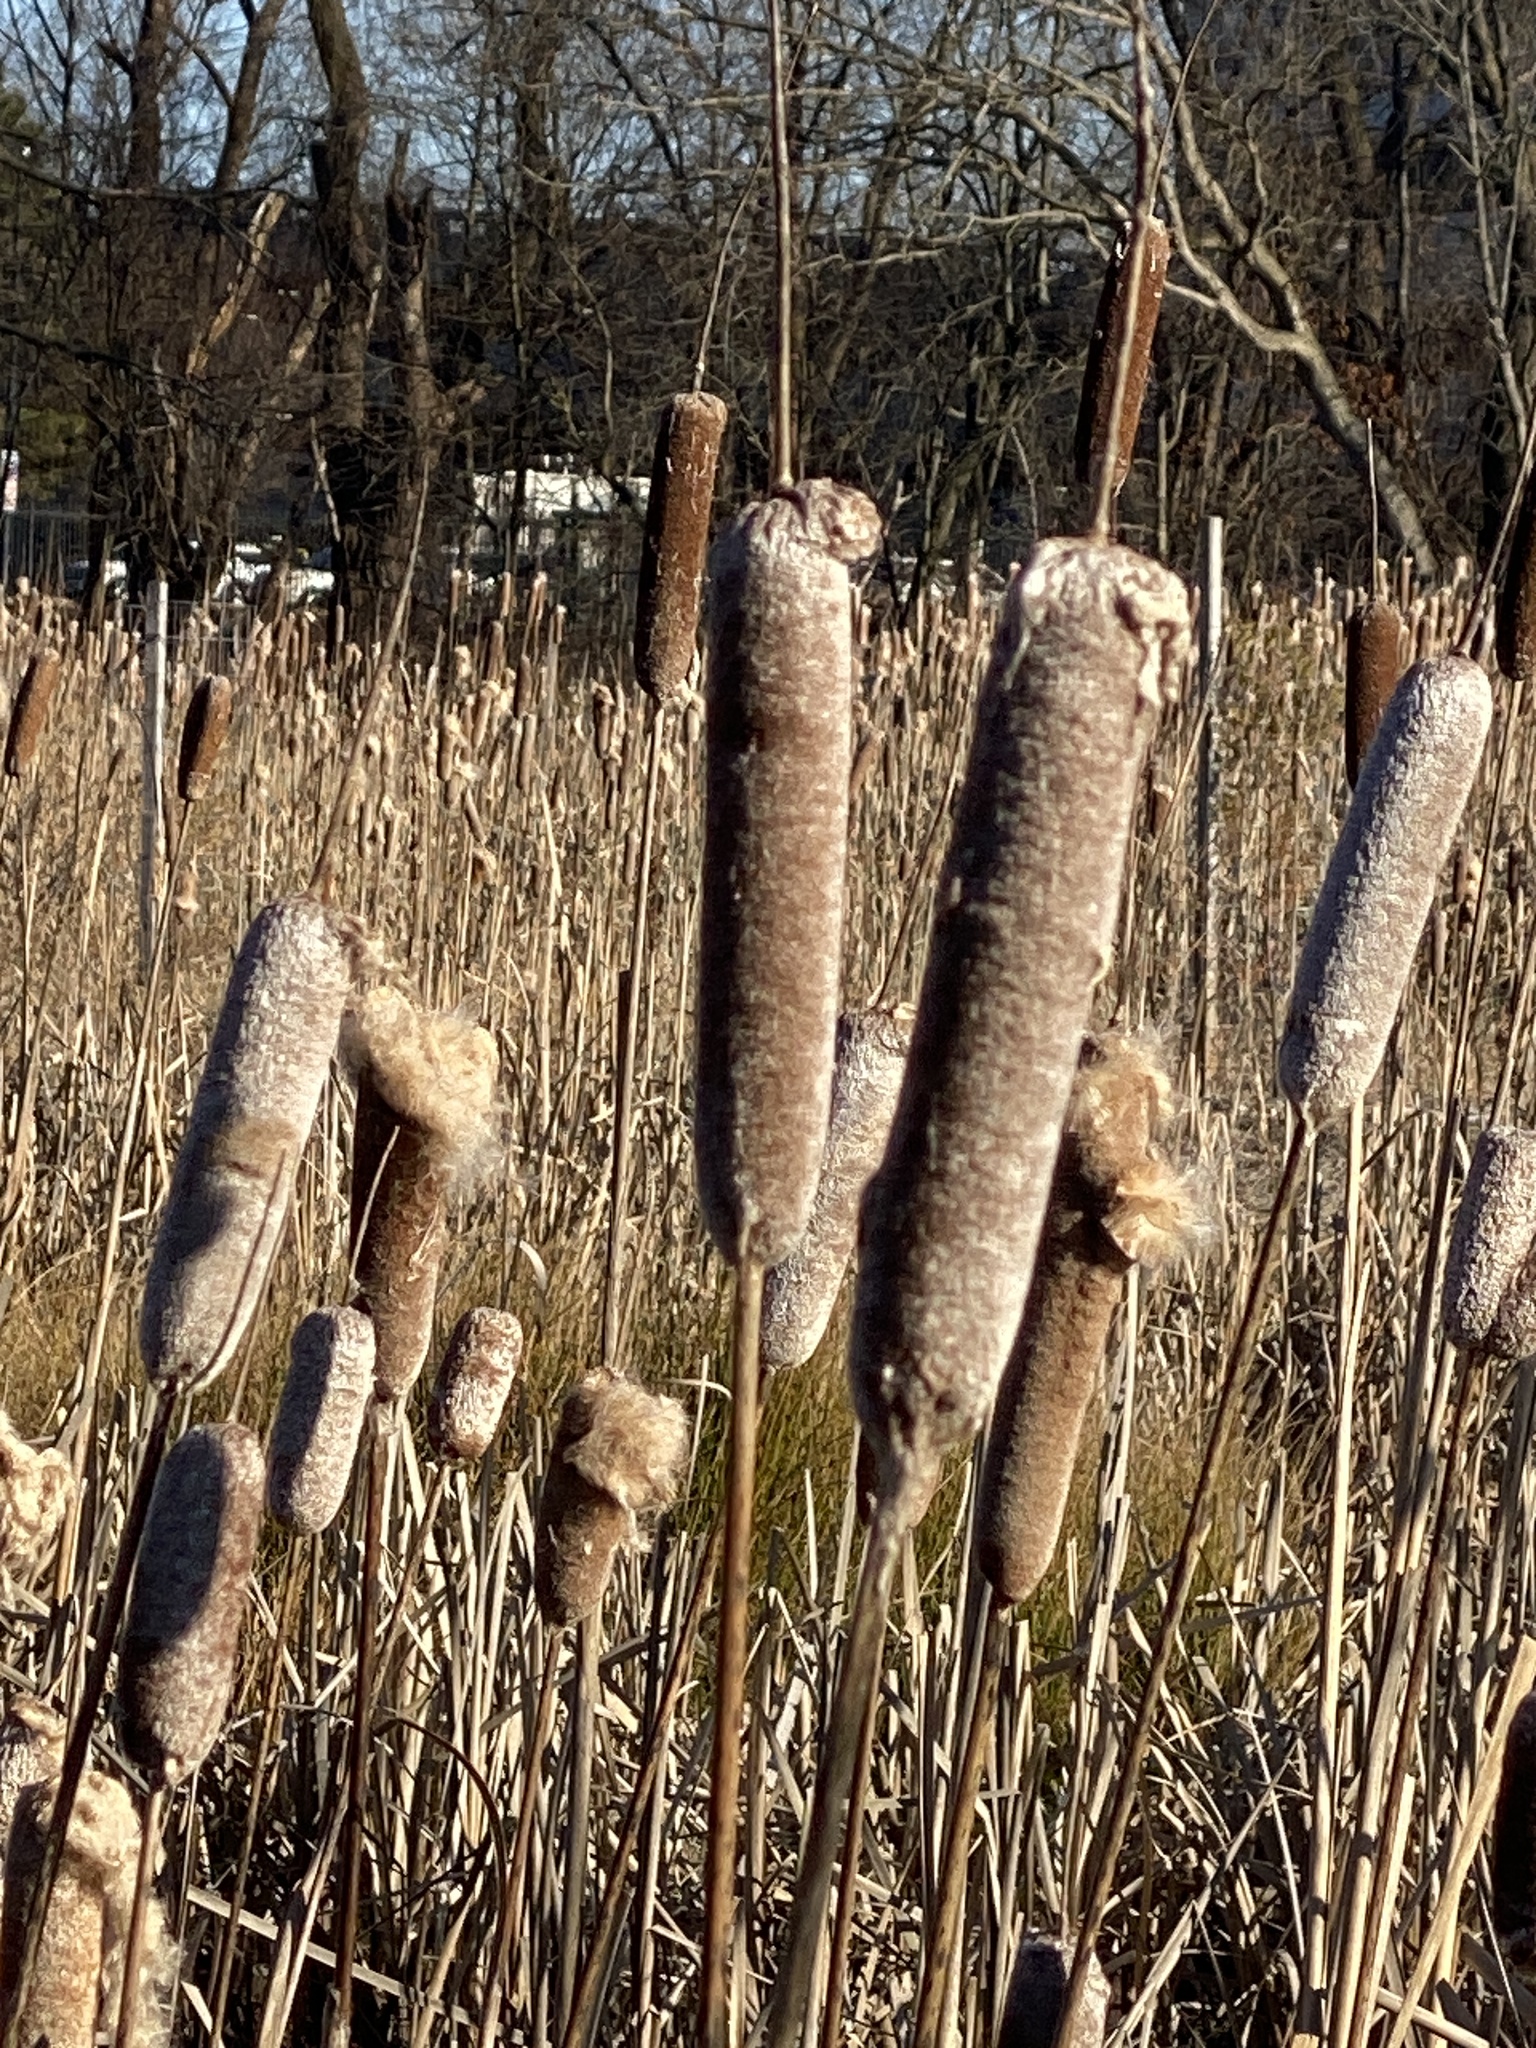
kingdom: Plantae
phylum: Tracheophyta
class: Liliopsida
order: Poales
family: Typhaceae
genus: Typha
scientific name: Typha
